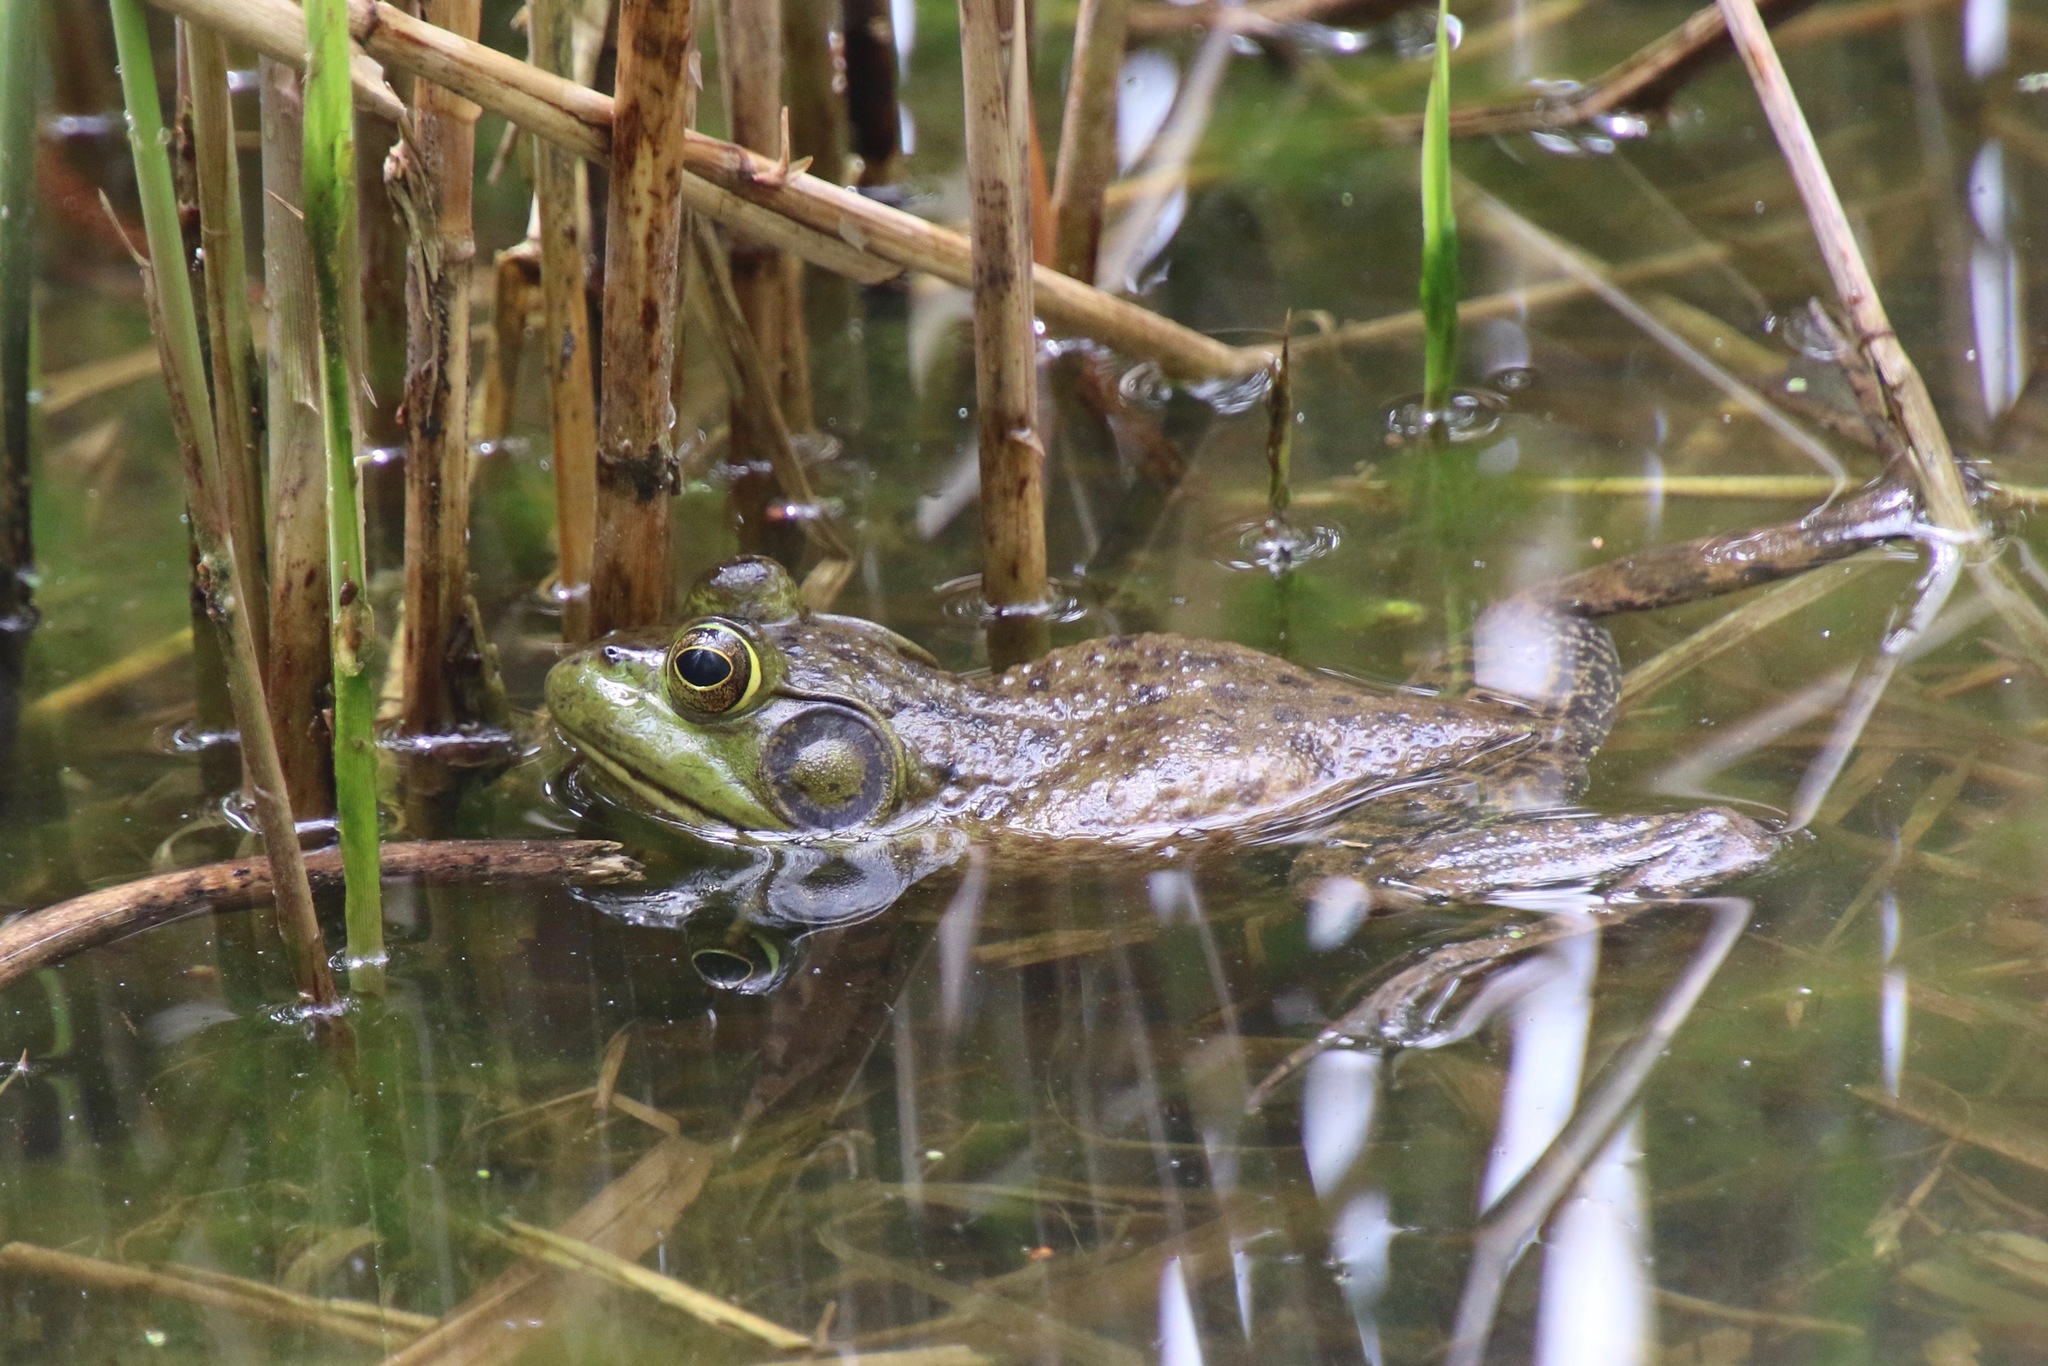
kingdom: Animalia
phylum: Chordata
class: Amphibia
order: Anura
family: Ranidae
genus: Lithobates
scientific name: Lithobates catesbeianus
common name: American bullfrog
